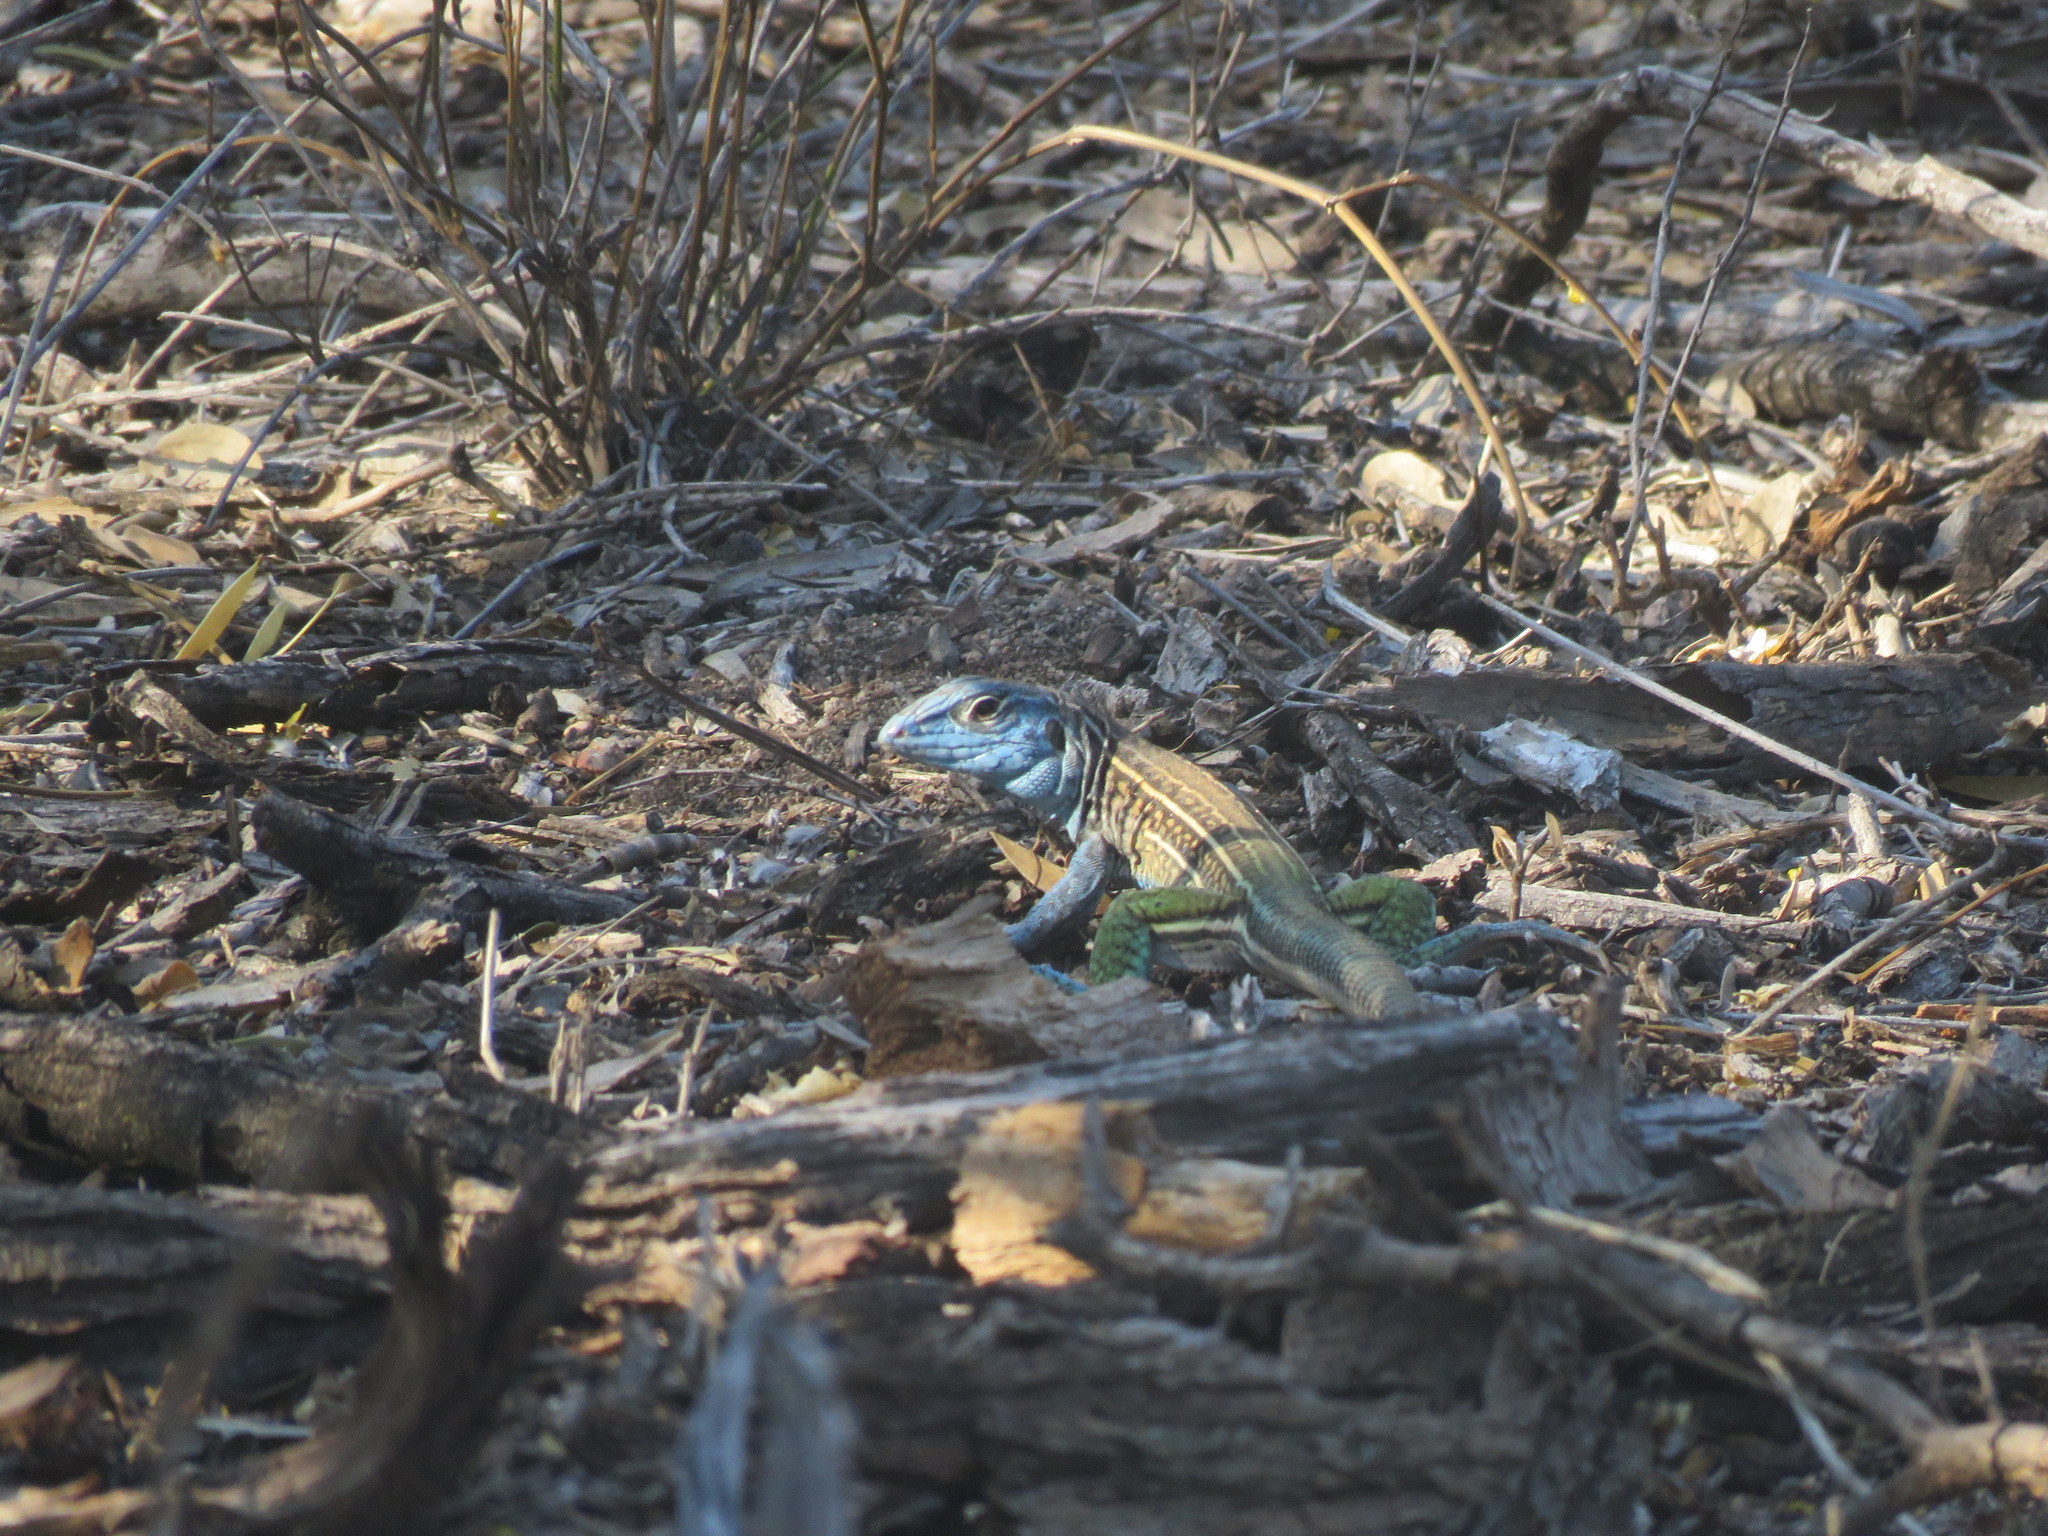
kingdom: Animalia
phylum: Chordata
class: Squamata
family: Teiidae
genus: Teius
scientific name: Teius teyou
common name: Four-toed tegu
